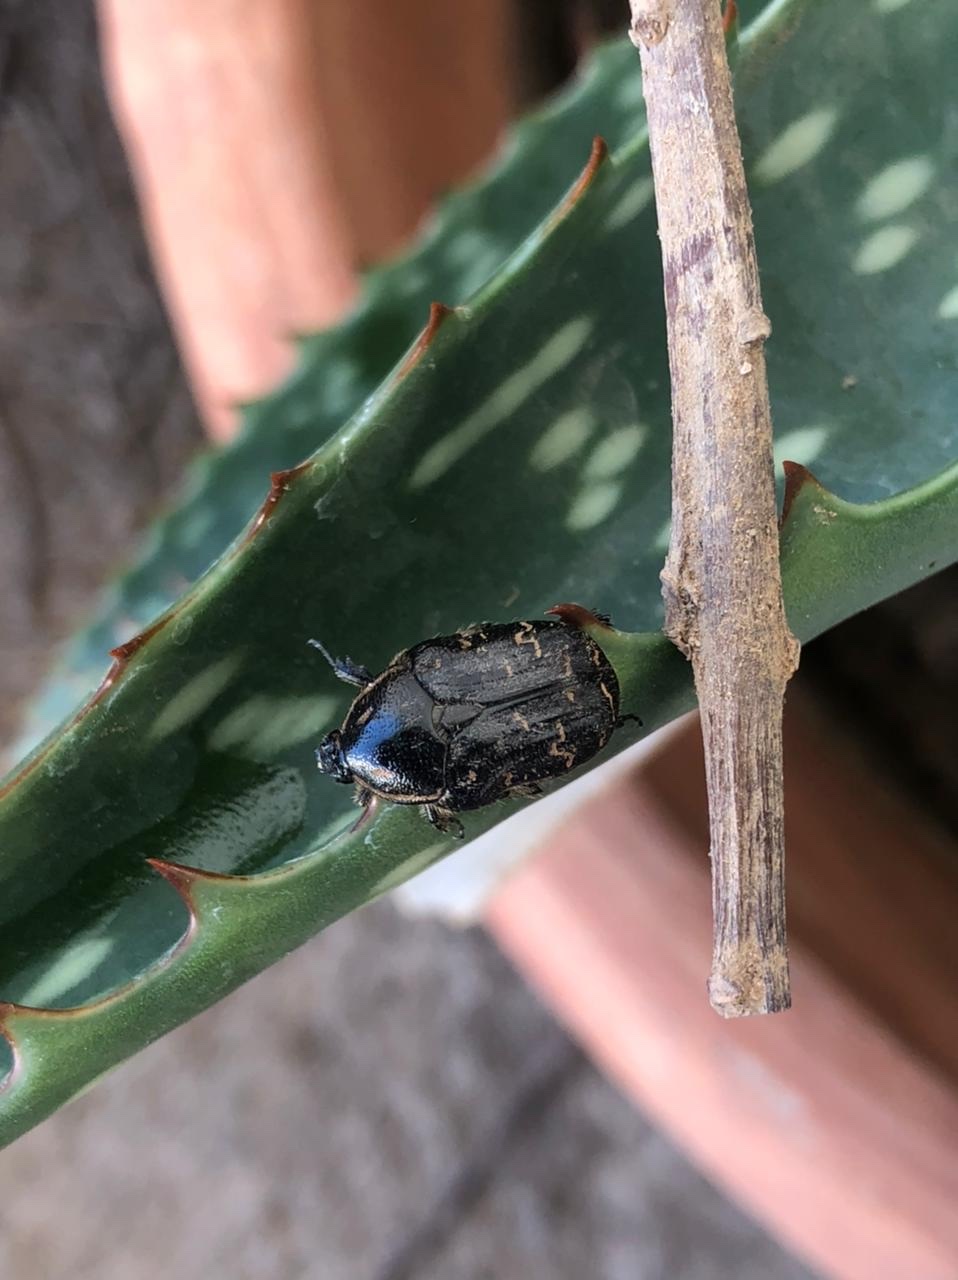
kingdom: Animalia
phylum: Arthropoda
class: Insecta
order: Coleoptera
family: Scarabaeidae
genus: Euphoria
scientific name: Euphoria lurida
